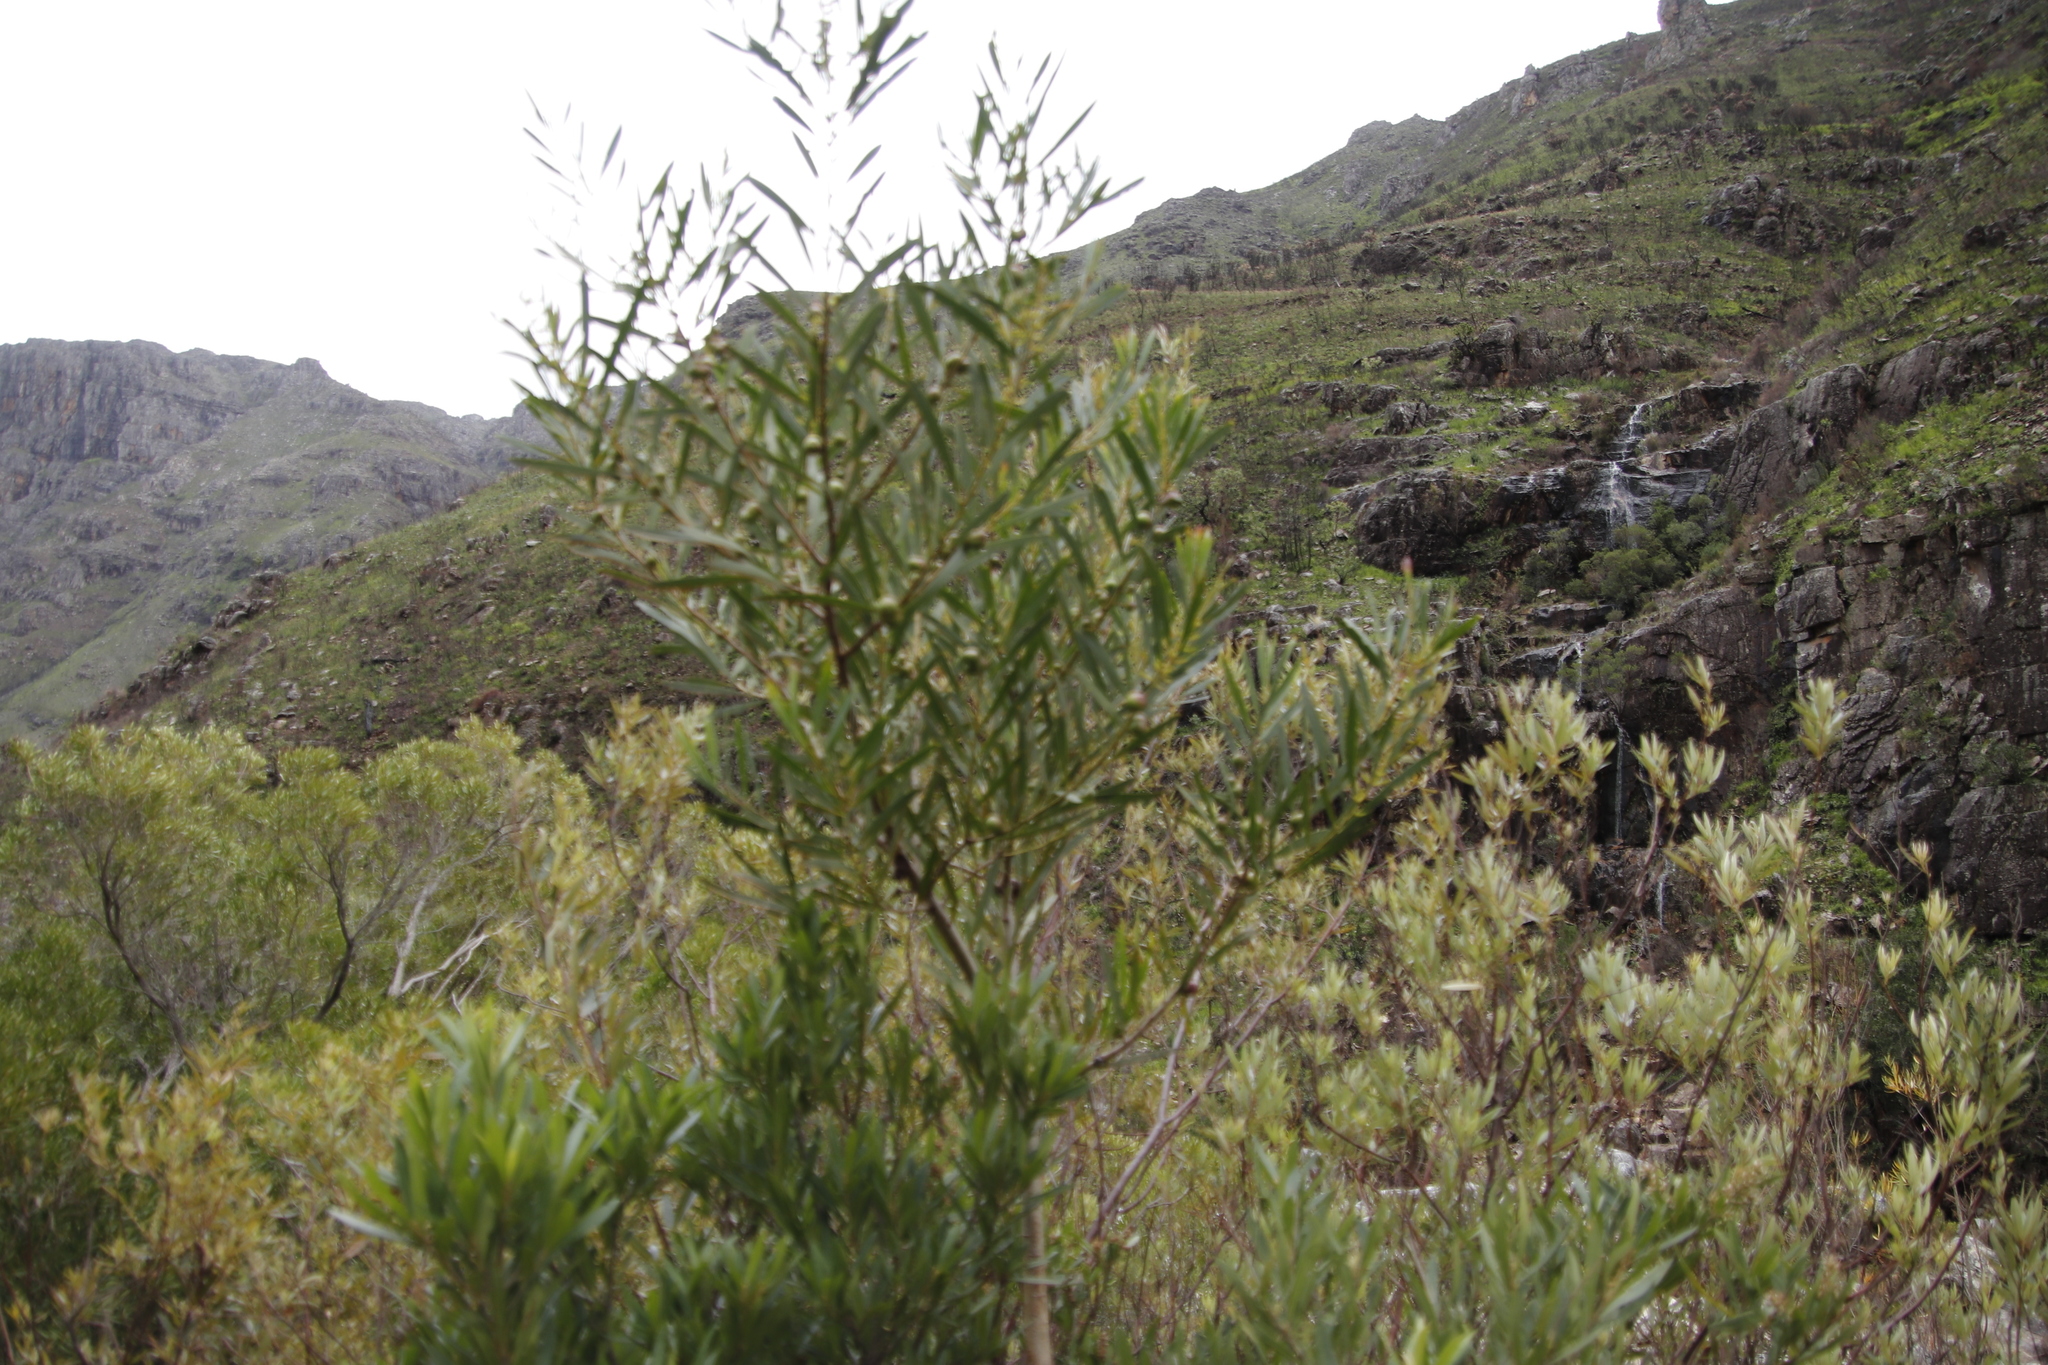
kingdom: Plantae
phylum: Tracheophyta
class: Magnoliopsida
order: Fabales
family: Fabaceae
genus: Acacia
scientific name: Acacia longifolia
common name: Sydney golden wattle
